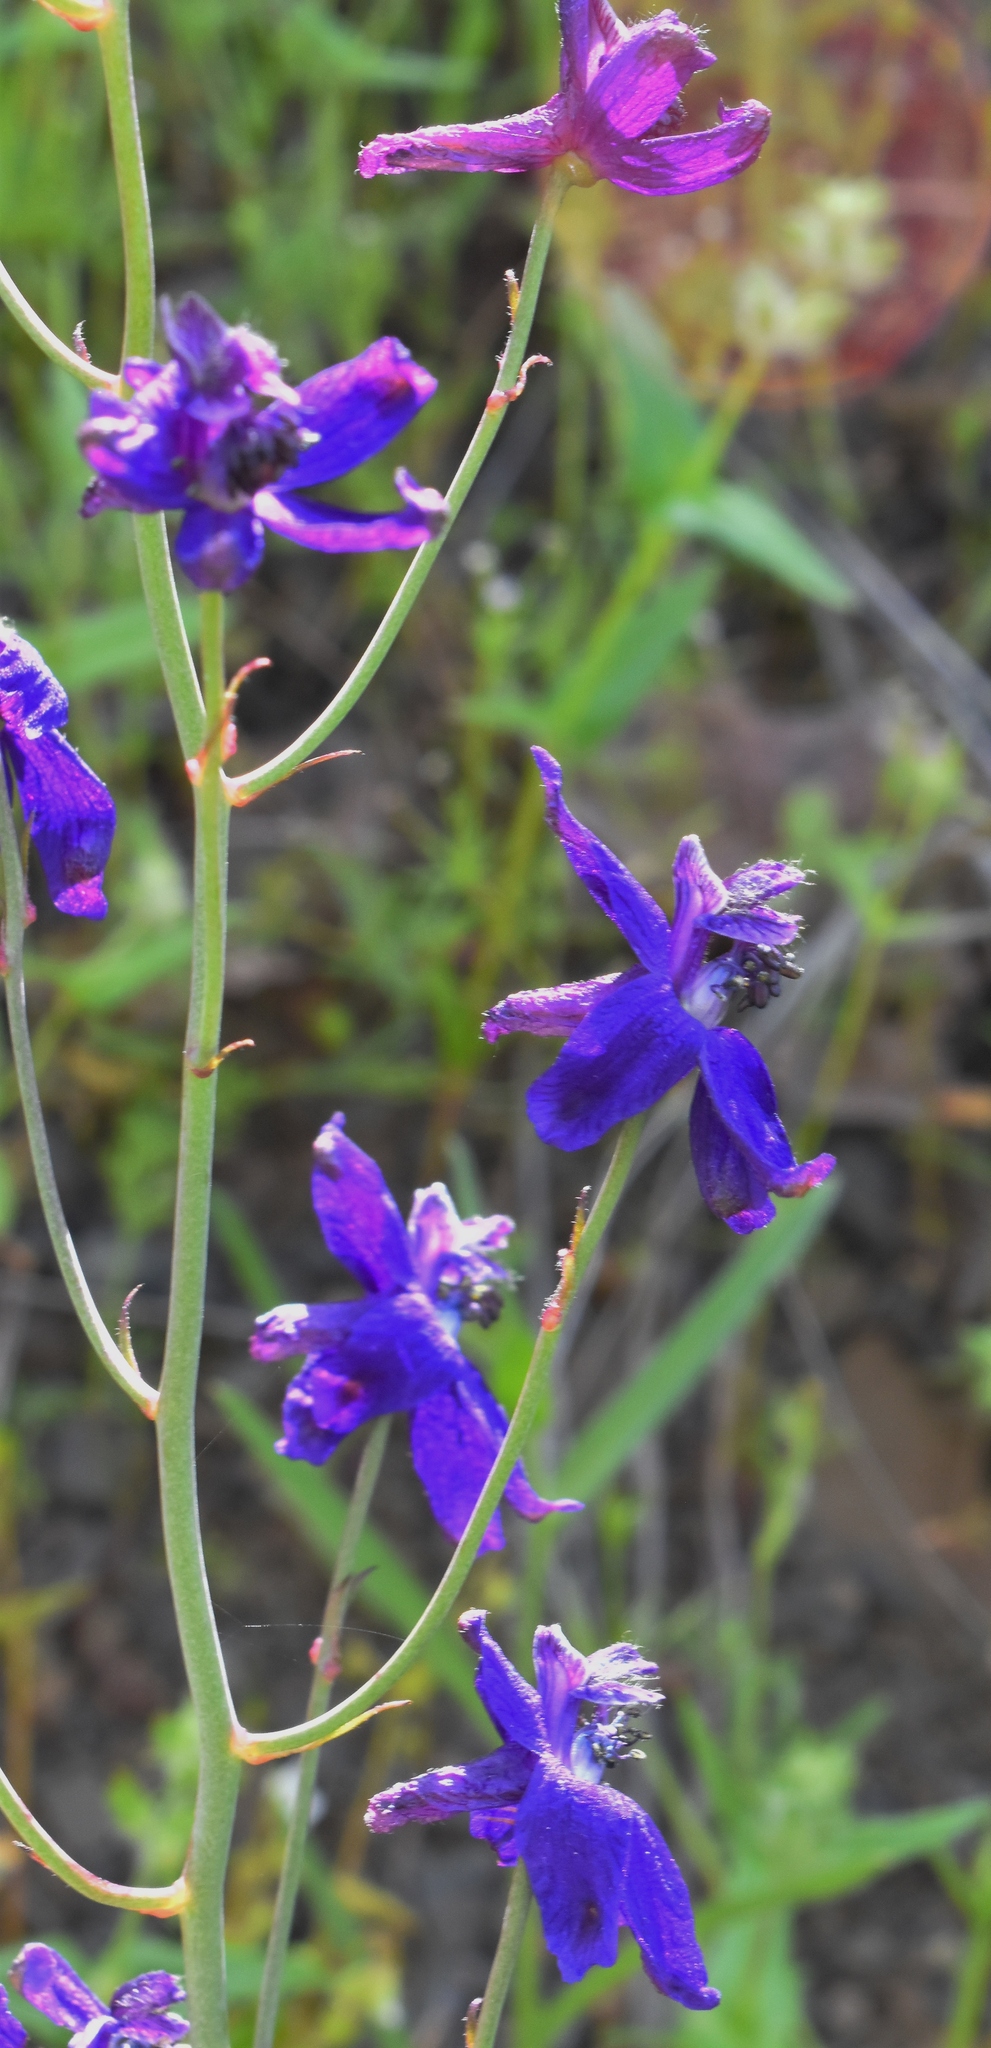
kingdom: Plantae
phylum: Tracheophyta
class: Magnoliopsida
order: Ranunculales
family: Ranunculaceae
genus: Delphinium
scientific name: Delphinium patens
